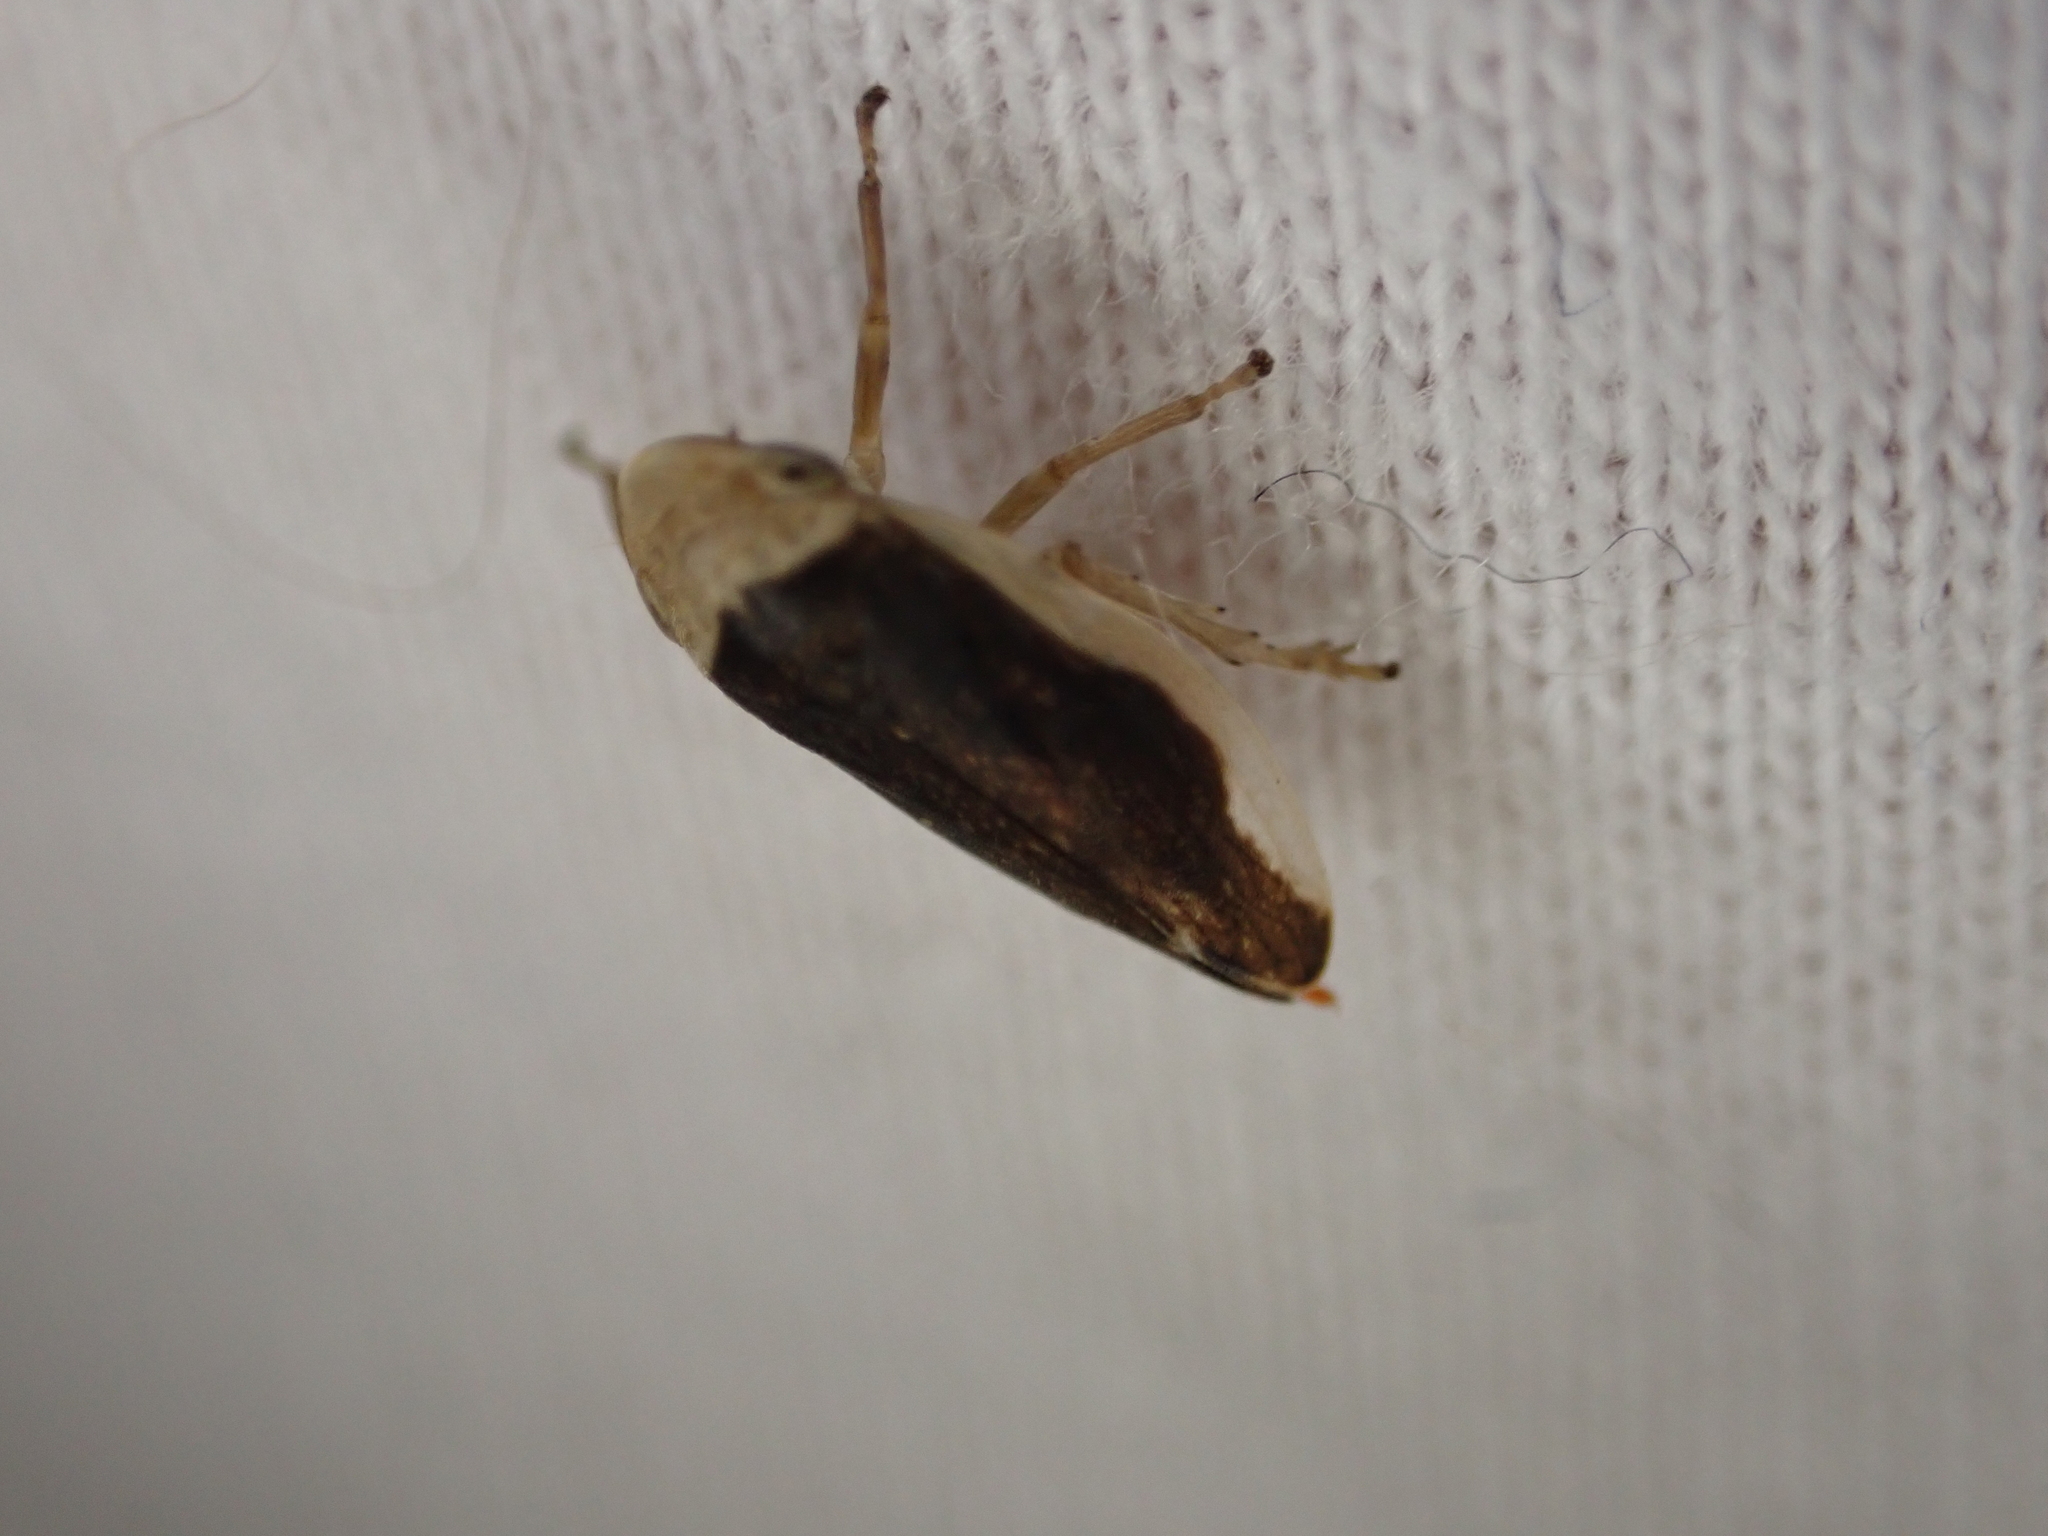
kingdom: Animalia
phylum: Arthropoda
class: Insecta
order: Hemiptera
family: Aphrophoridae
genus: Philaenus
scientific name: Philaenus spumarius
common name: Meadow spittlebug
